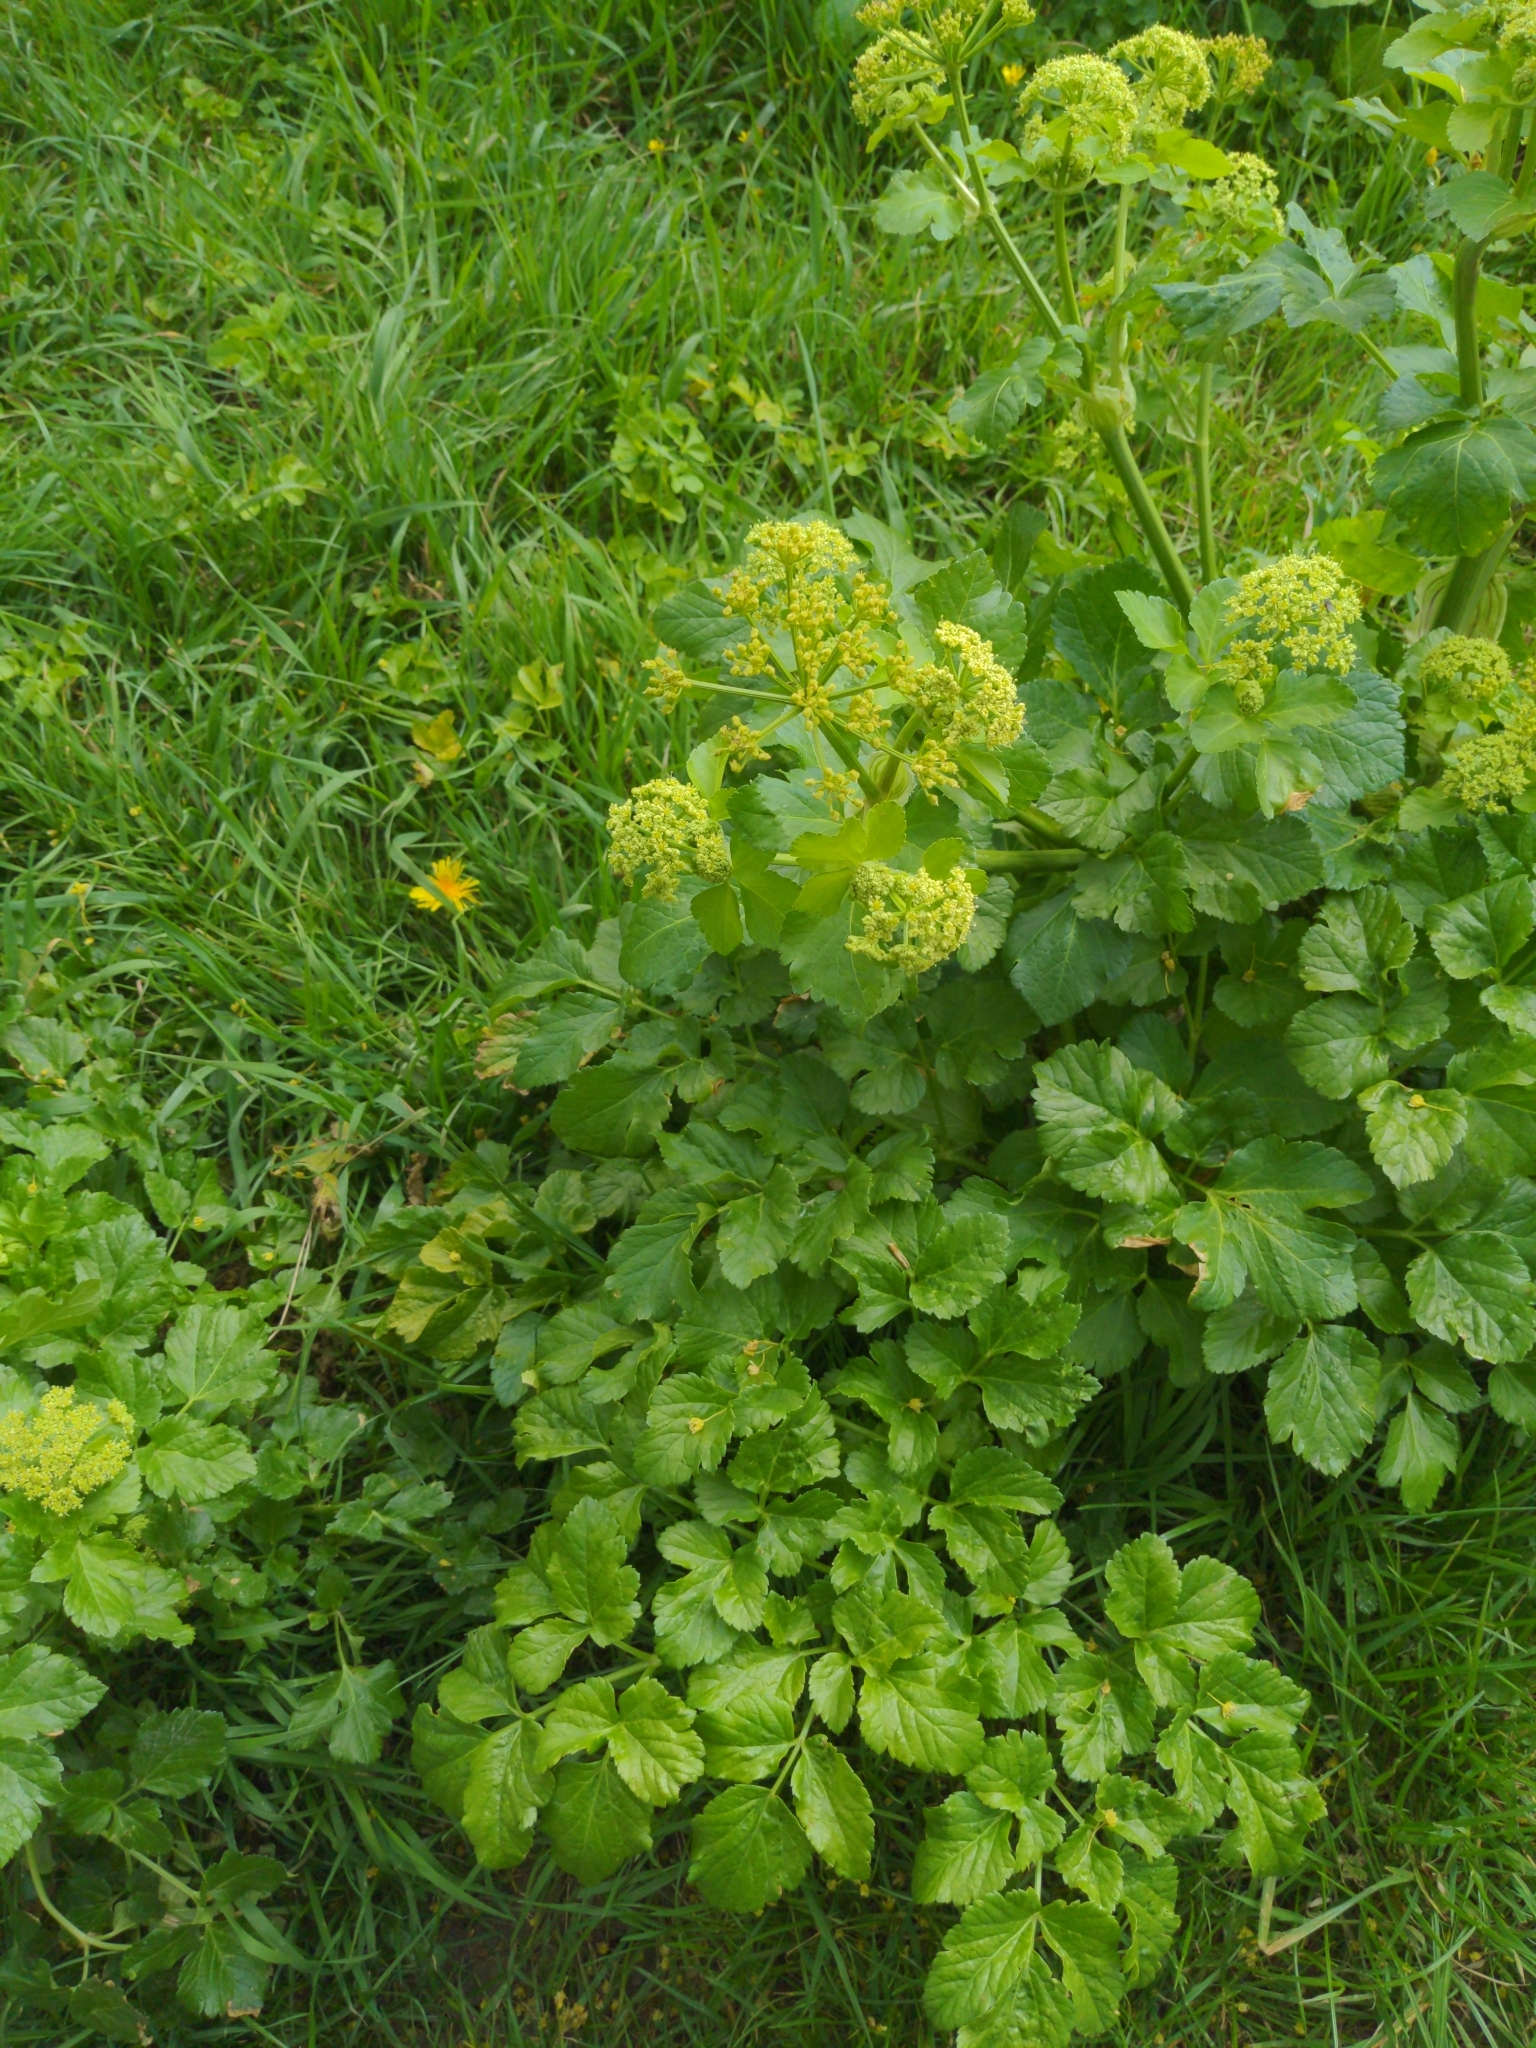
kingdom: Plantae
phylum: Tracheophyta
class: Magnoliopsida
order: Apiales
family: Apiaceae
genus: Smyrnium
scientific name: Smyrnium olusatrum
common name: Alexanders
